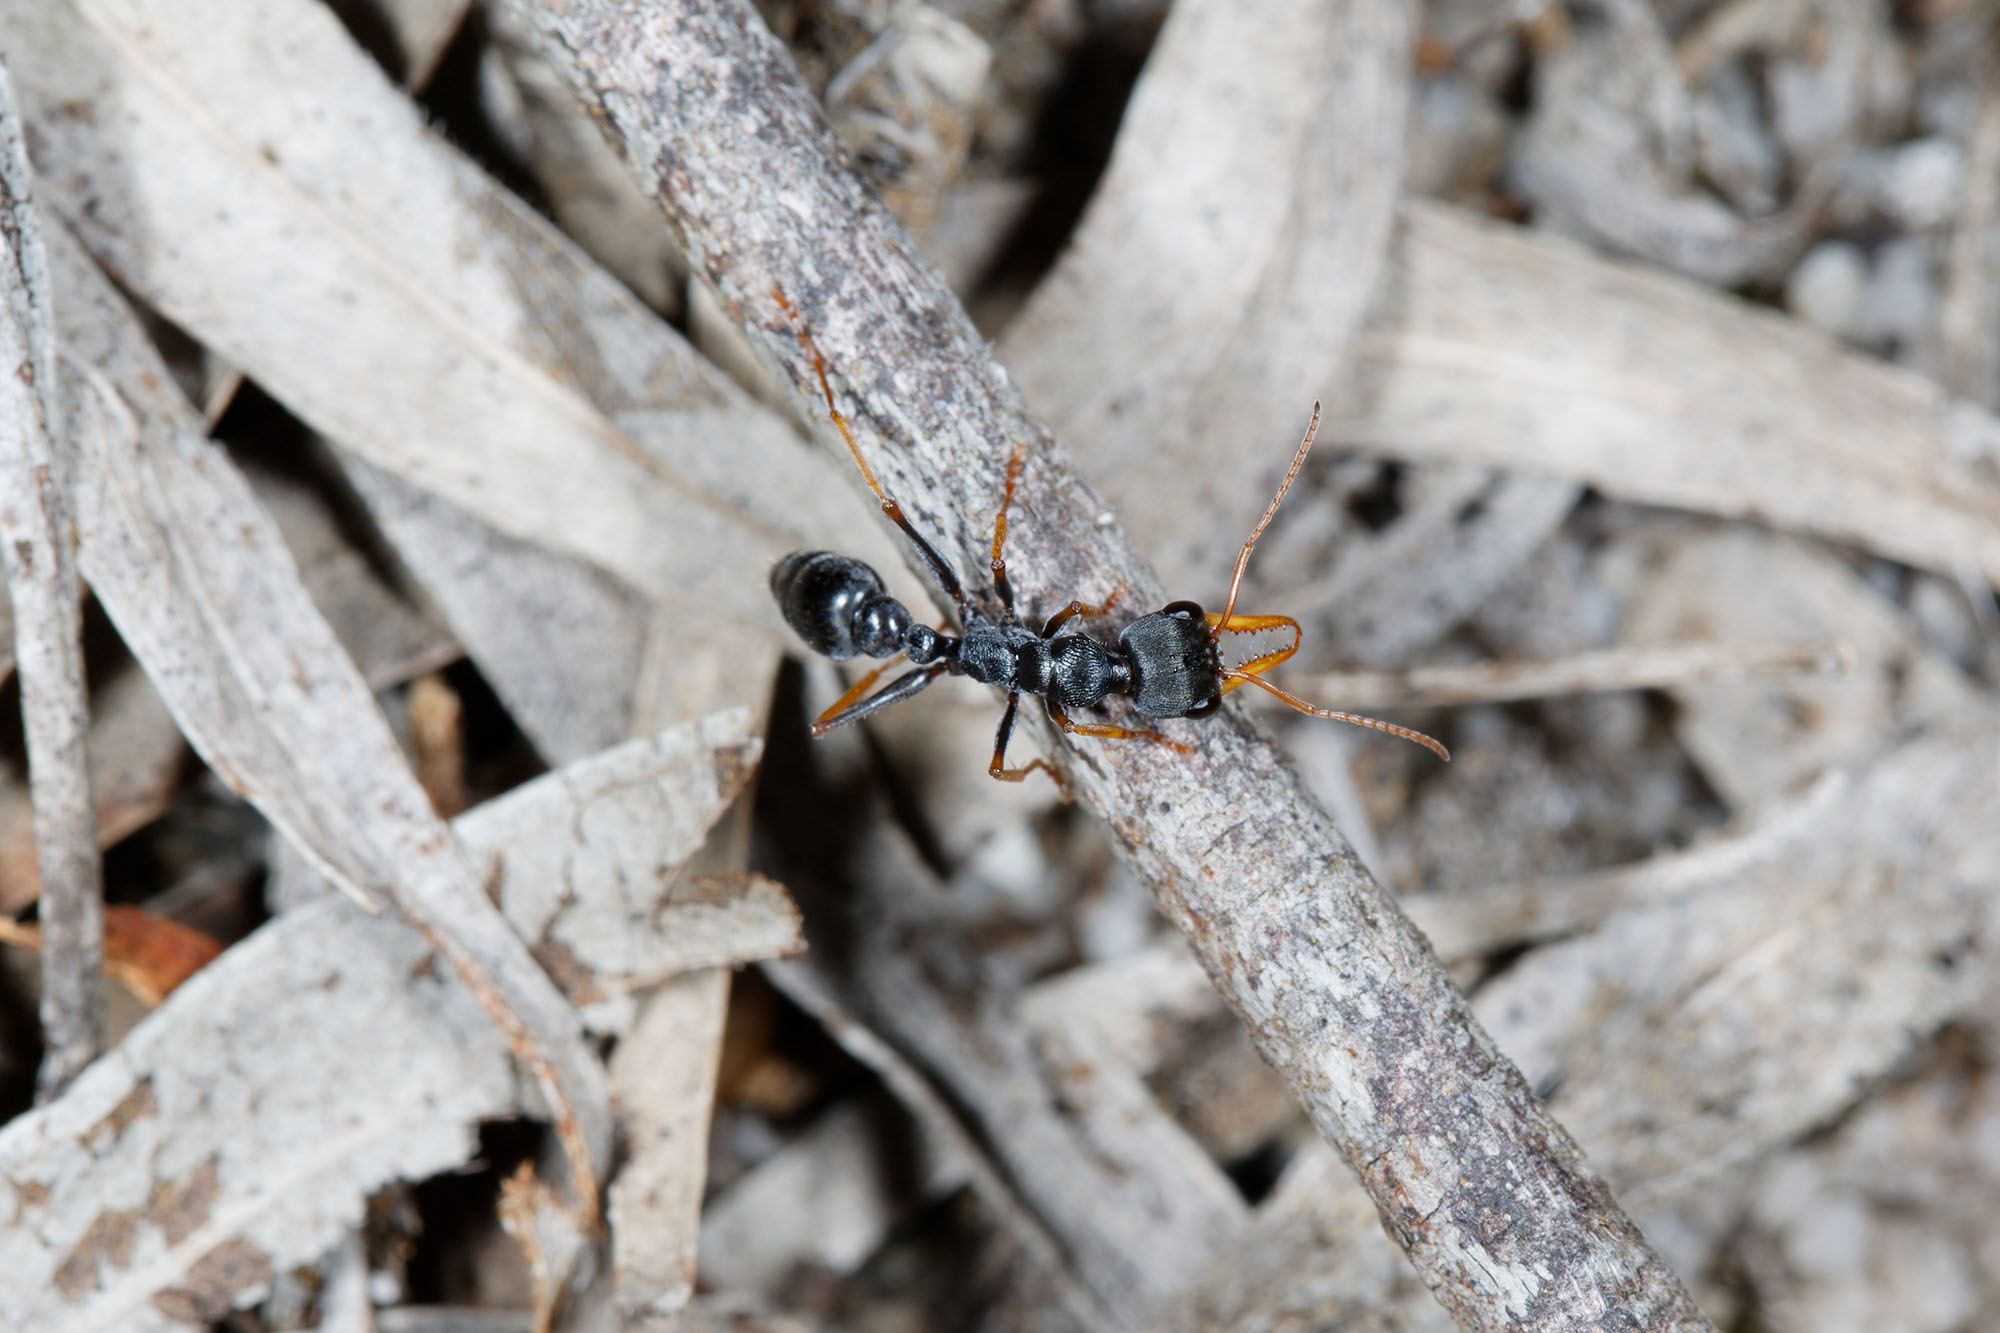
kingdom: Animalia
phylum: Arthropoda
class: Insecta
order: Hymenoptera
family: Formicidae
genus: Myrmecia
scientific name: Myrmecia pilosula
